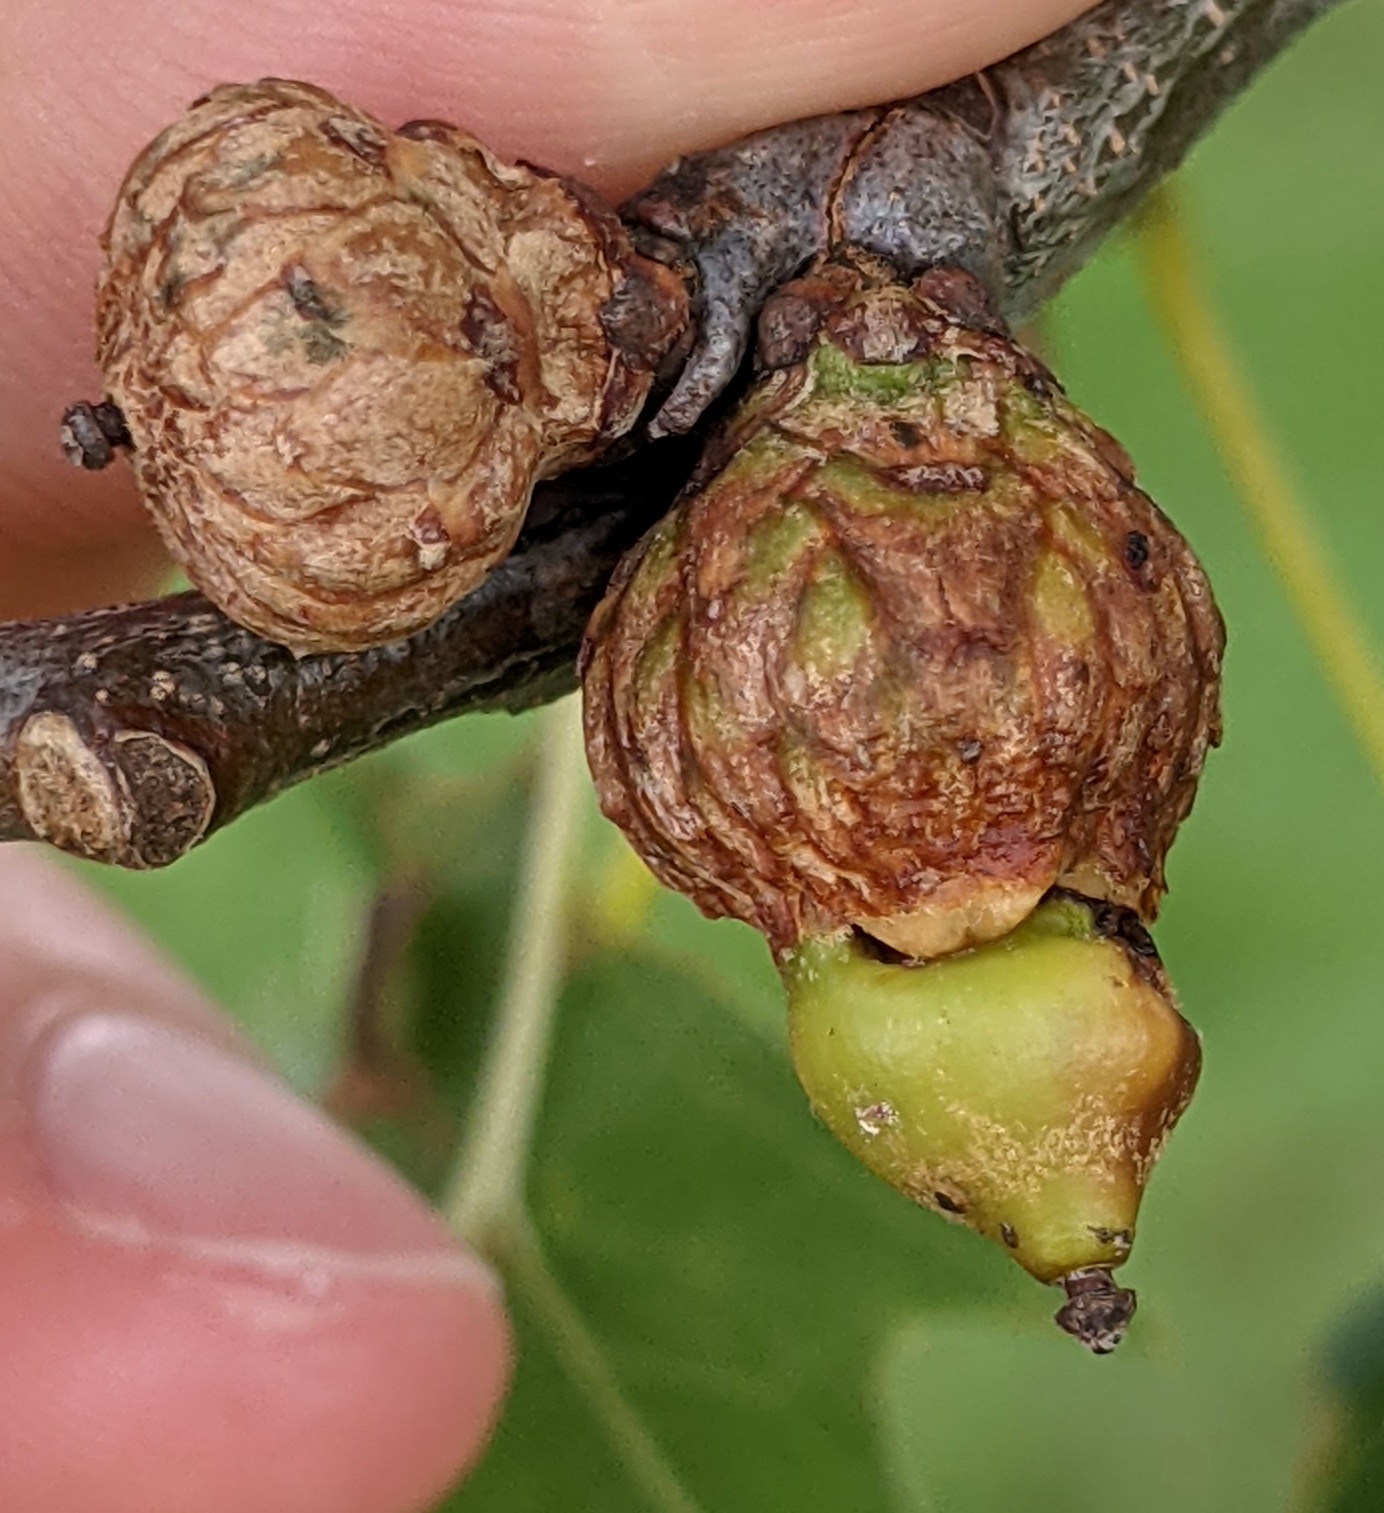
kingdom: Animalia
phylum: Arthropoda
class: Insecta
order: Hymenoptera
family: Cynipidae
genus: Callirhytis
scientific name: Callirhytis
